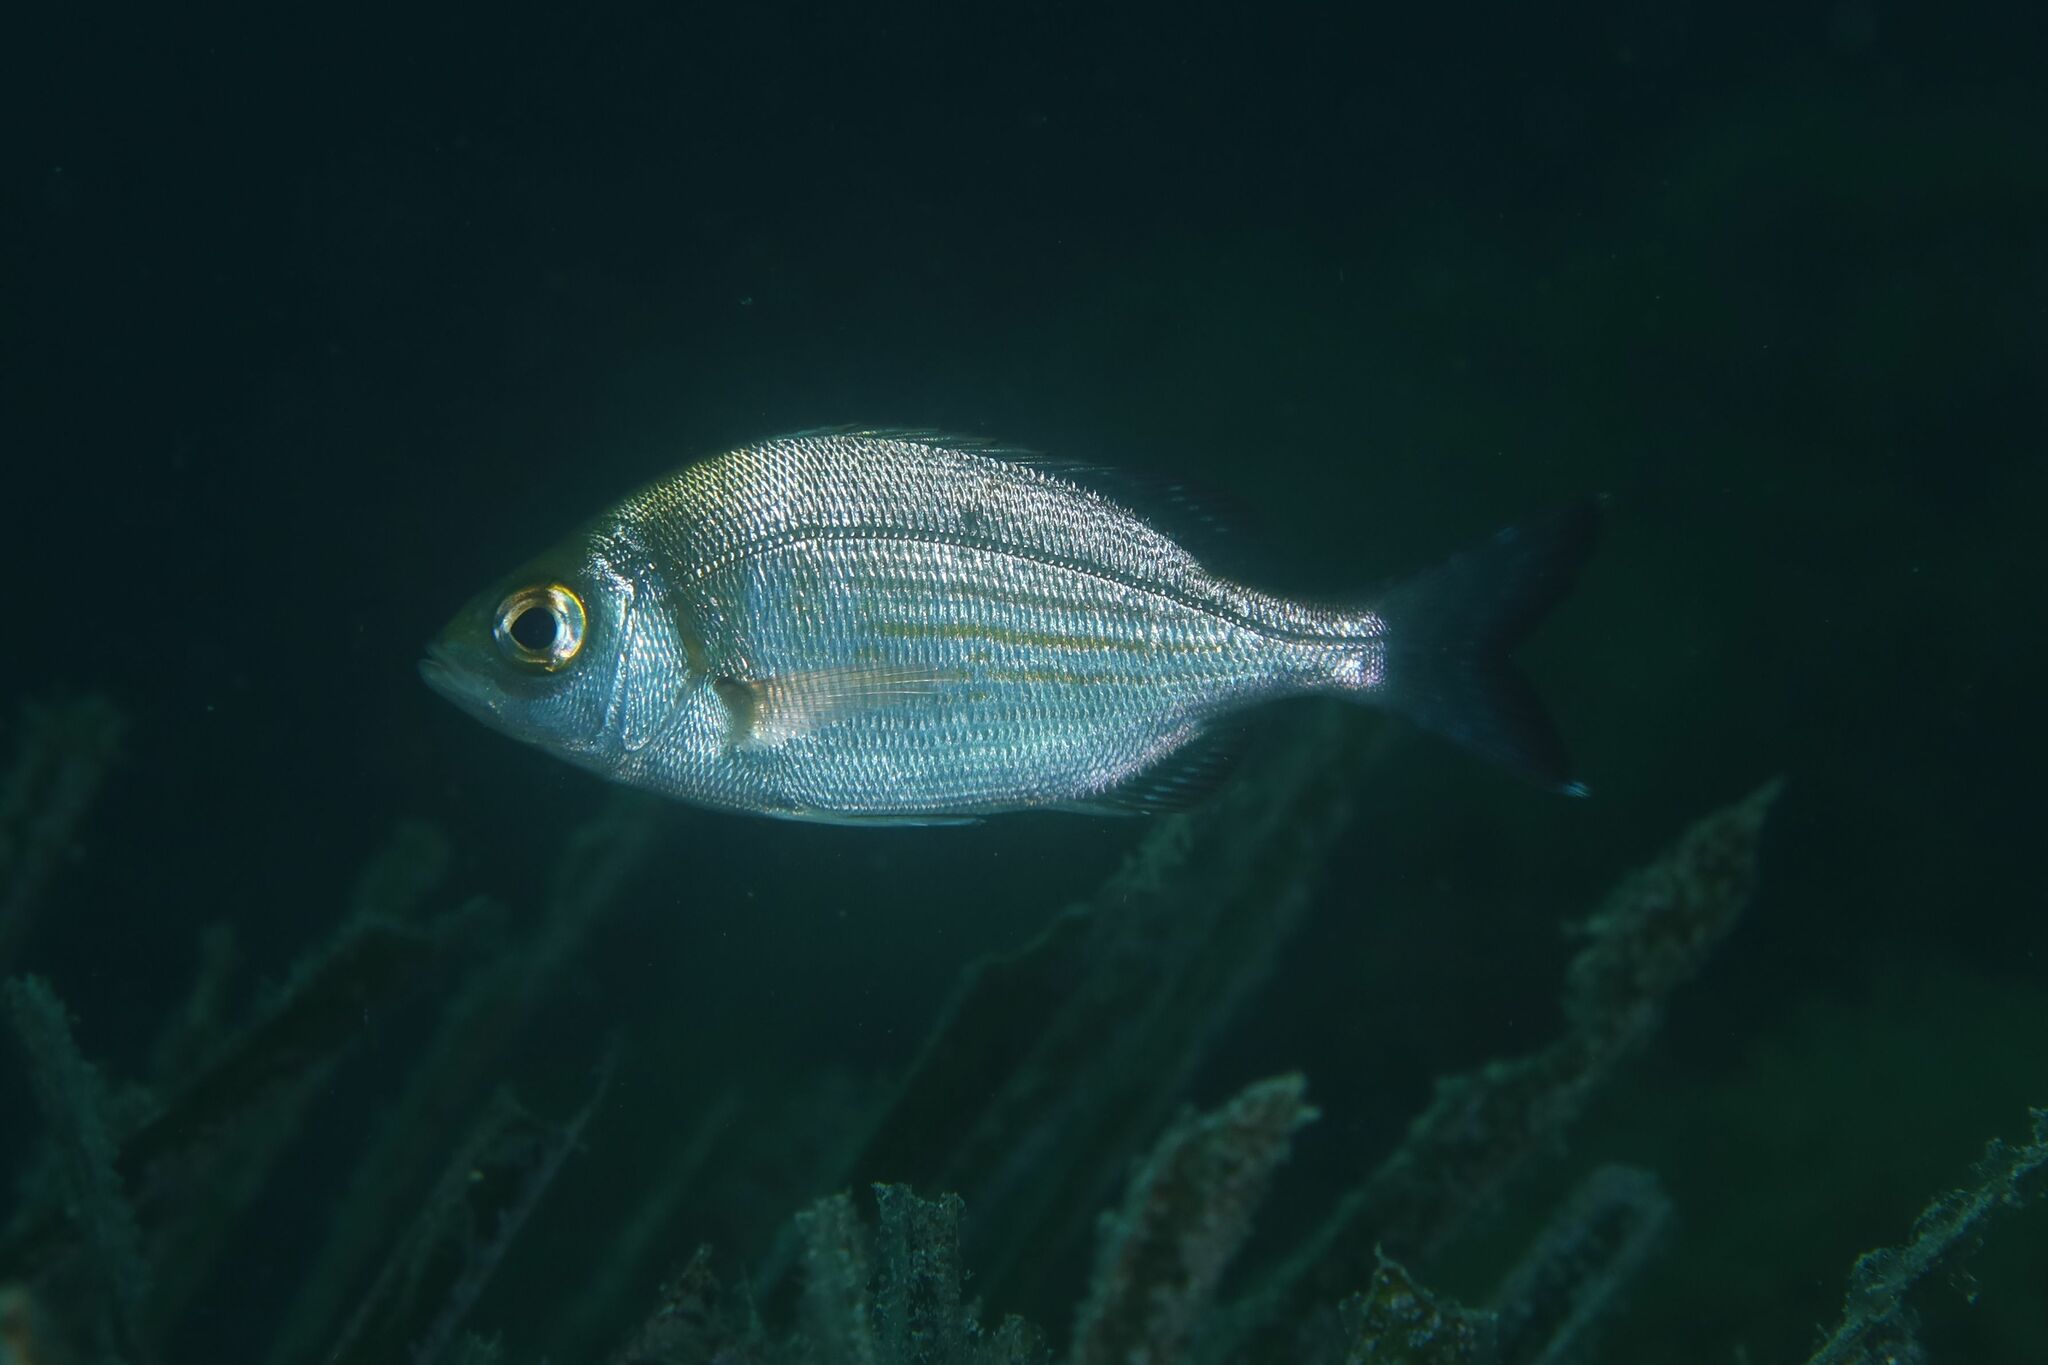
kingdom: Animalia
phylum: Chordata
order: Perciformes
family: Sparidae
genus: Spondyliosoma
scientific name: Spondyliosoma cantharus
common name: Black seabream
